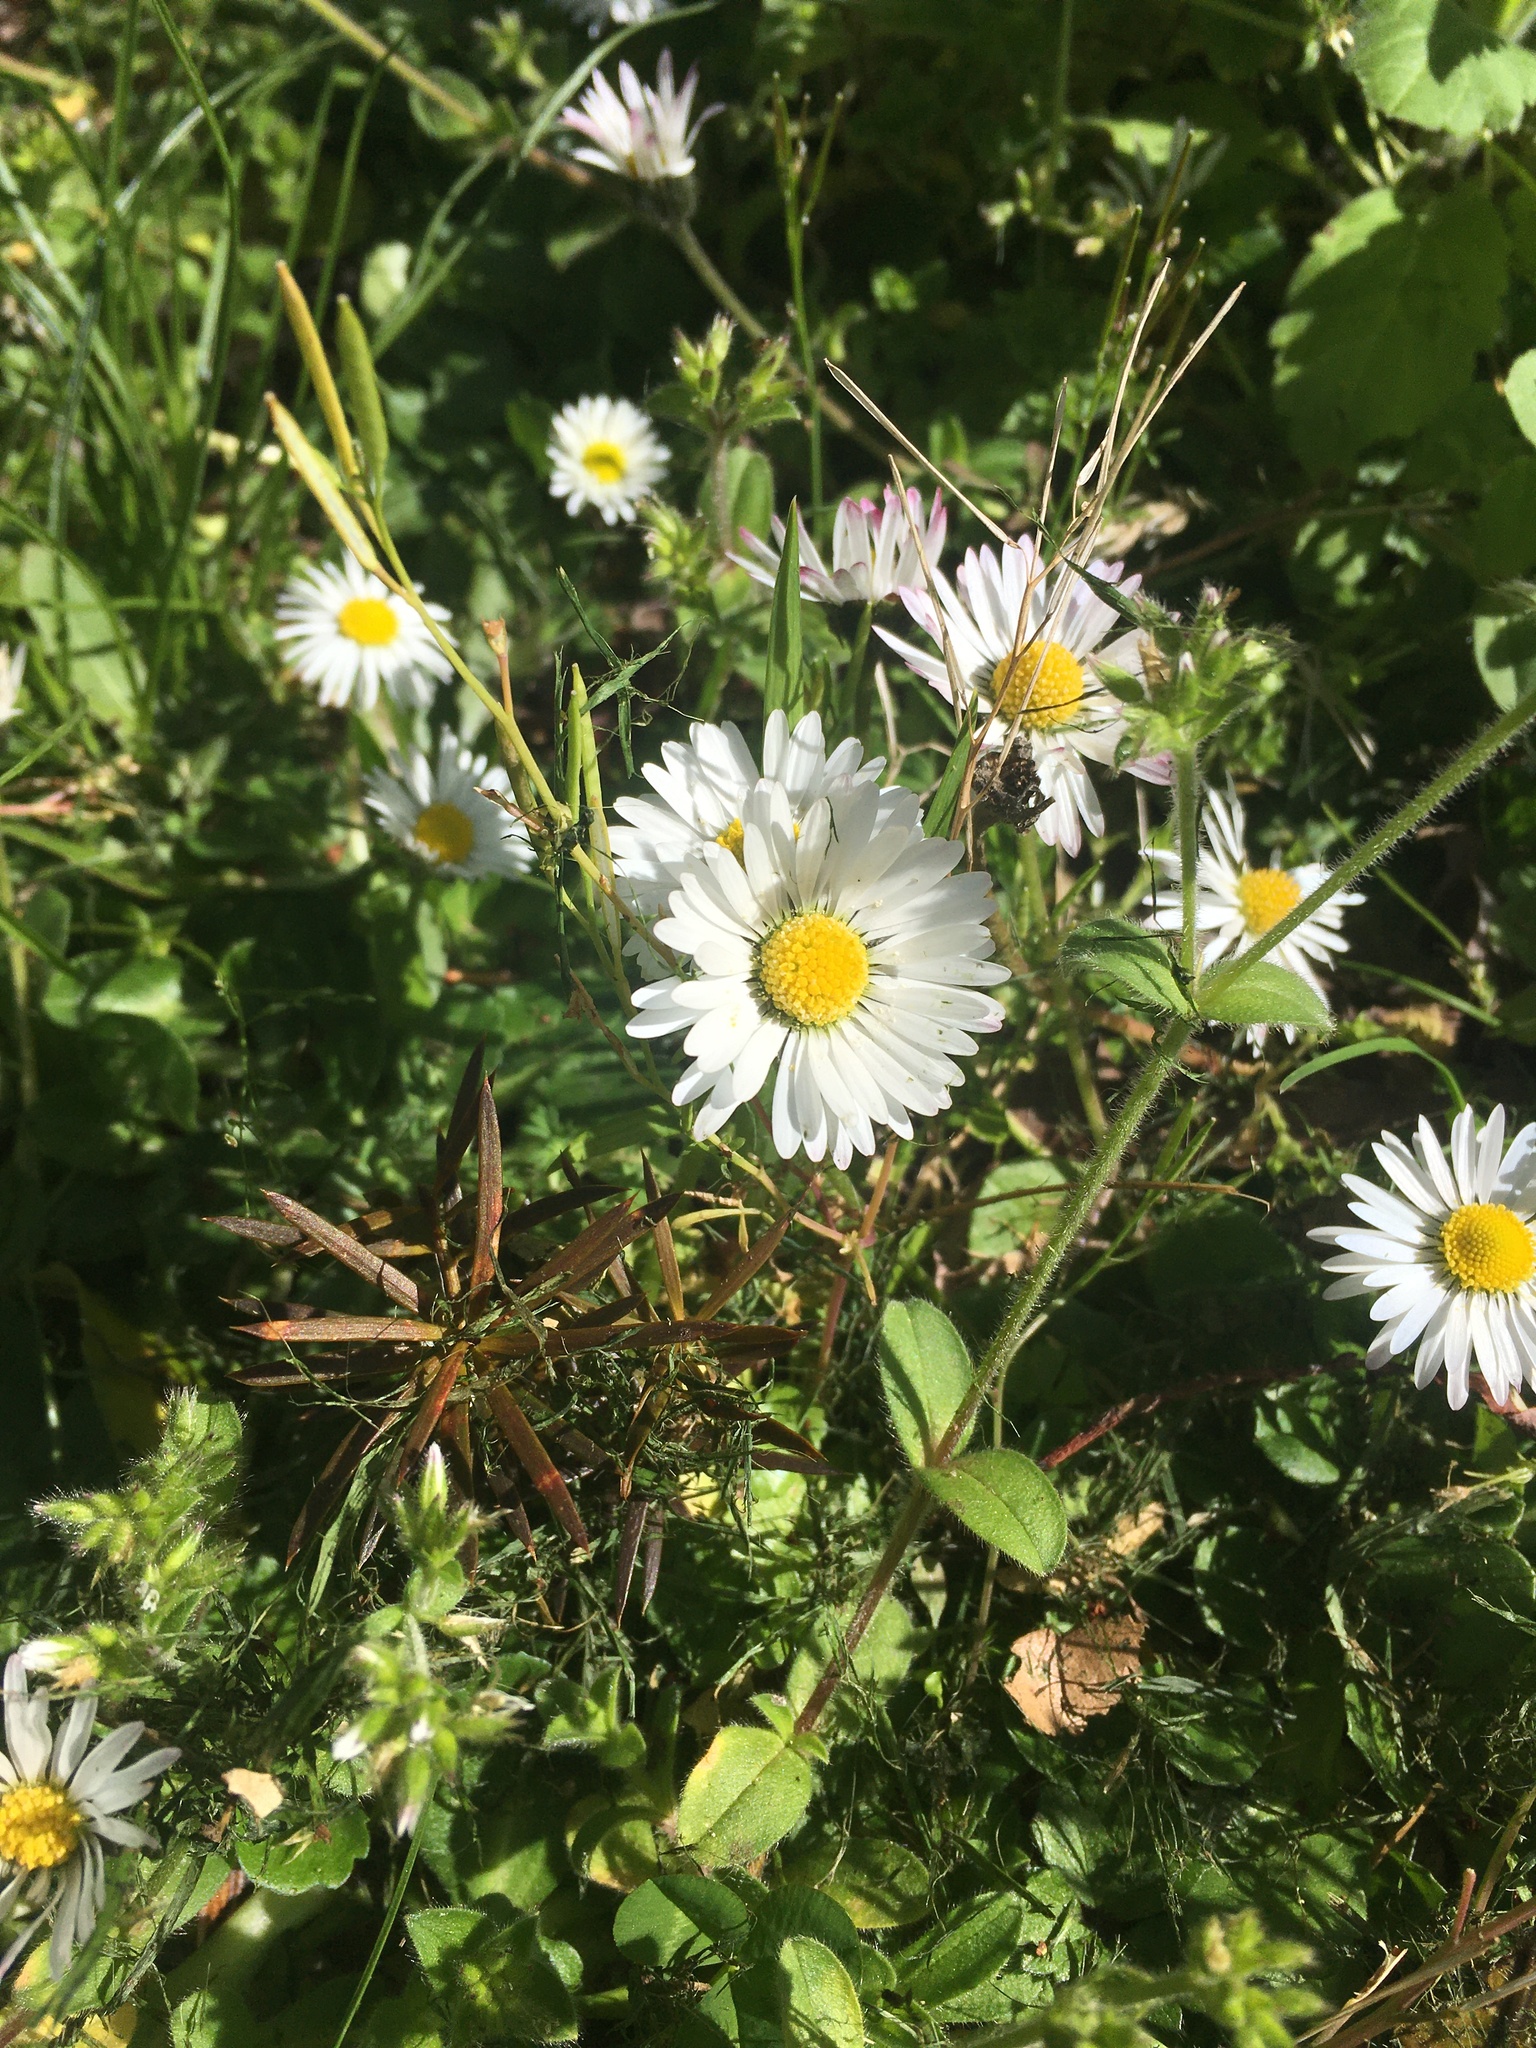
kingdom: Plantae
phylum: Tracheophyta
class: Magnoliopsida
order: Asterales
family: Asteraceae
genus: Bellis
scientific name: Bellis perennis
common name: Lawndaisy
